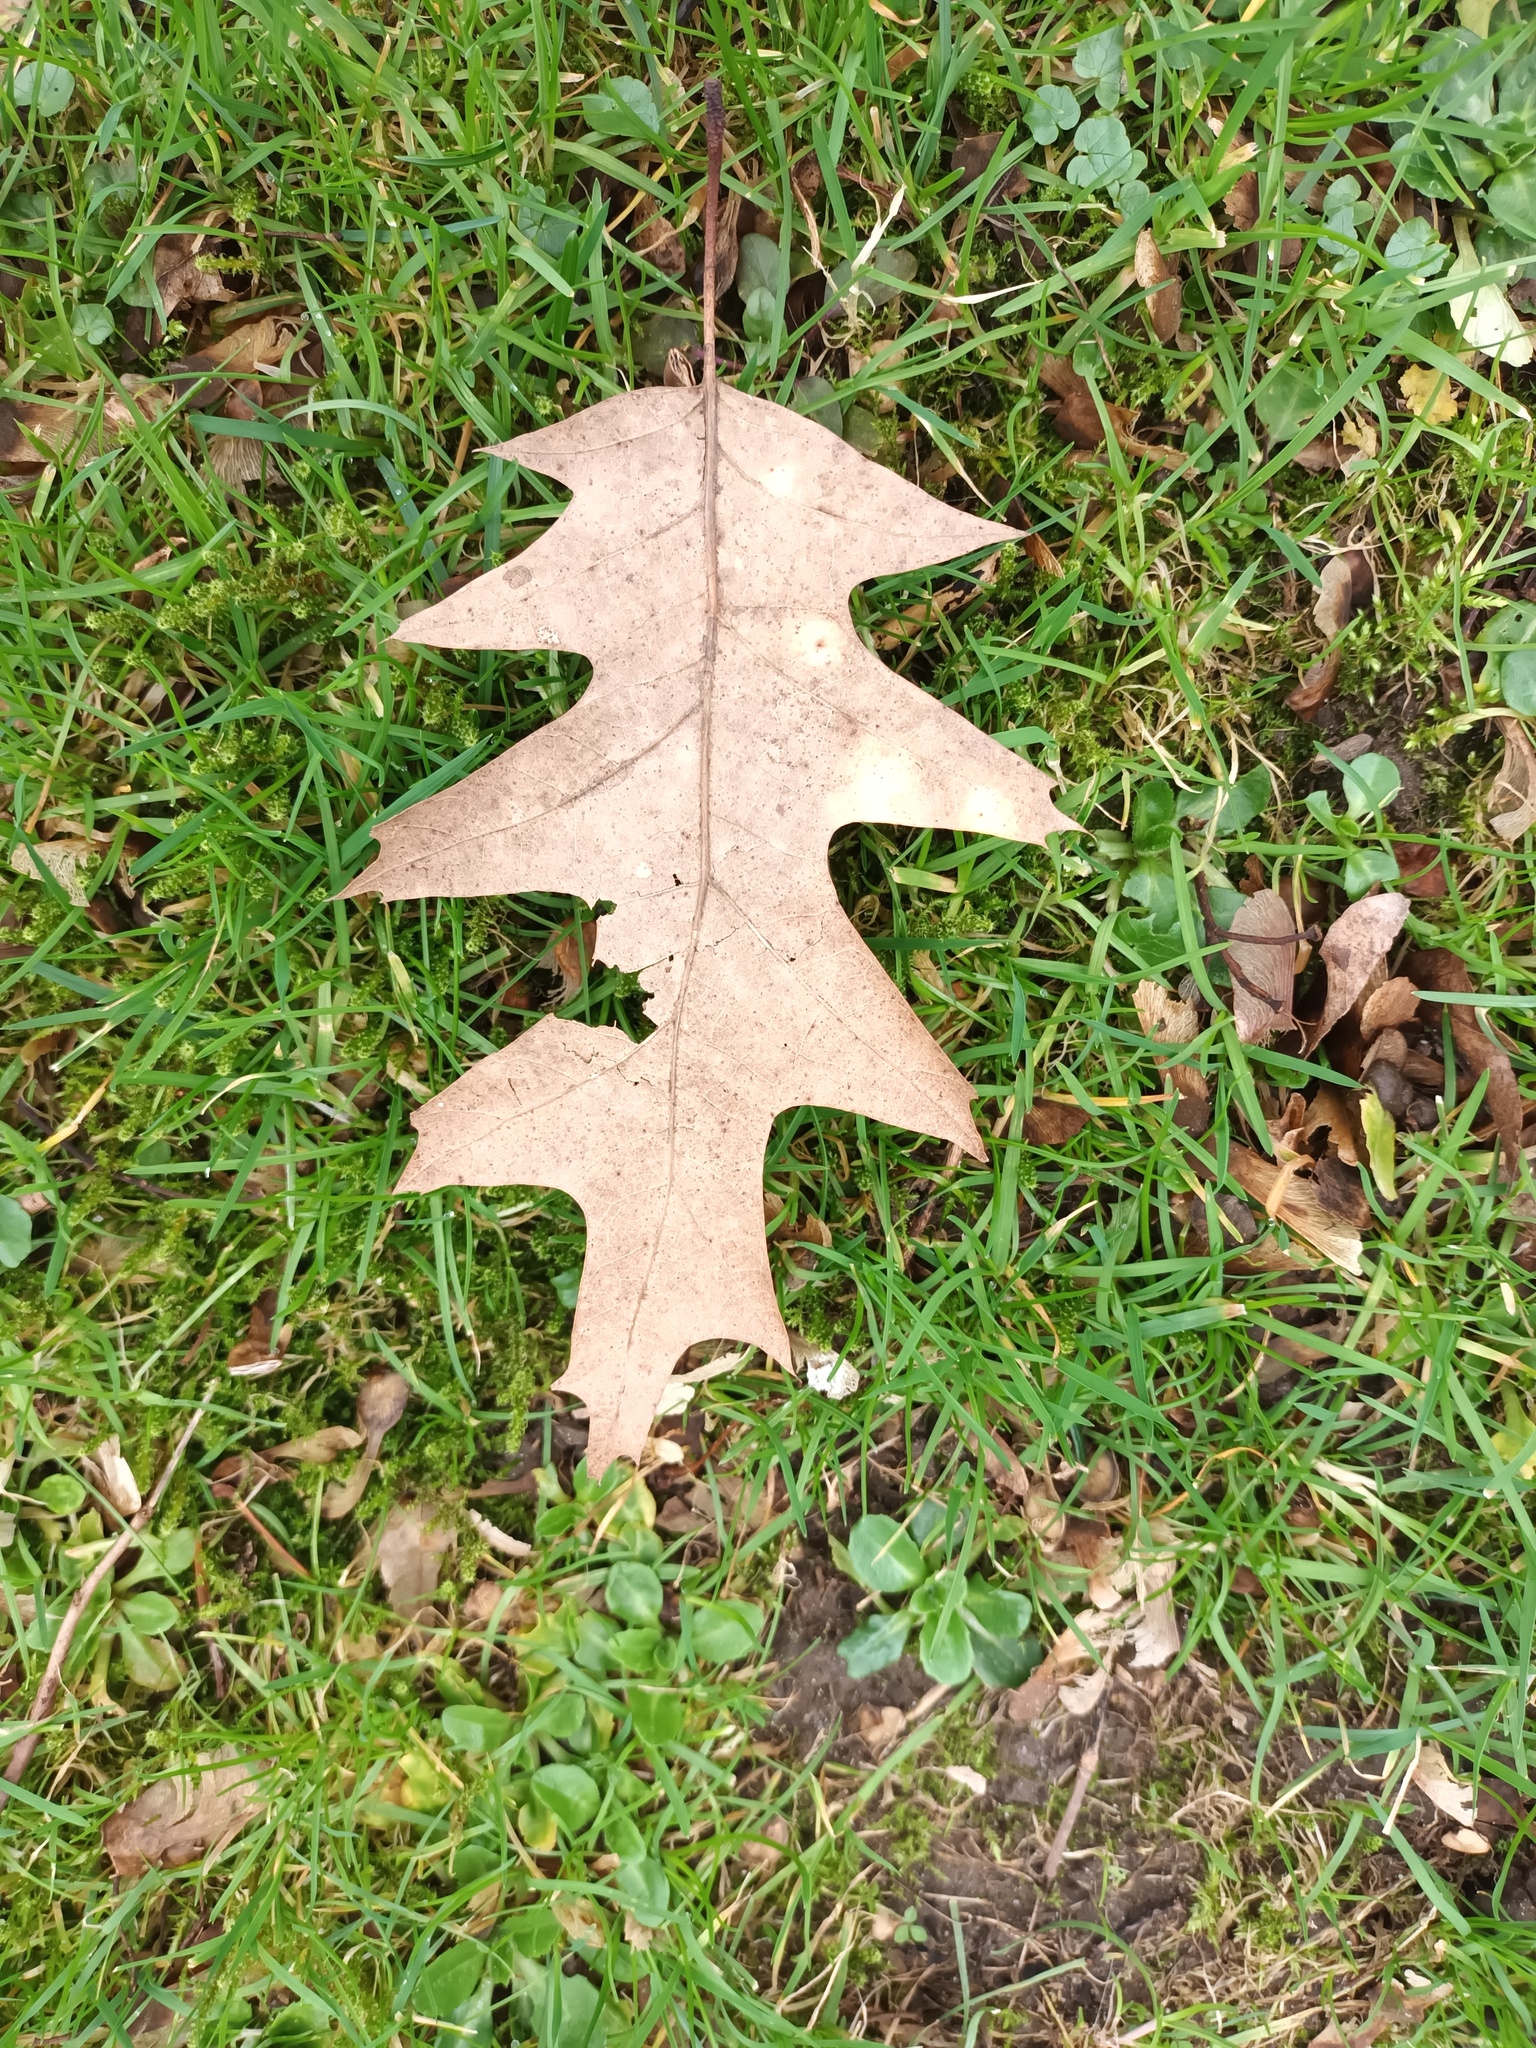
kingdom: Plantae
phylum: Tracheophyta
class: Magnoliopsida
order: Fagales
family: Fagaceae
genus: Quercus
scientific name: Quercus rubra
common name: Red oak
